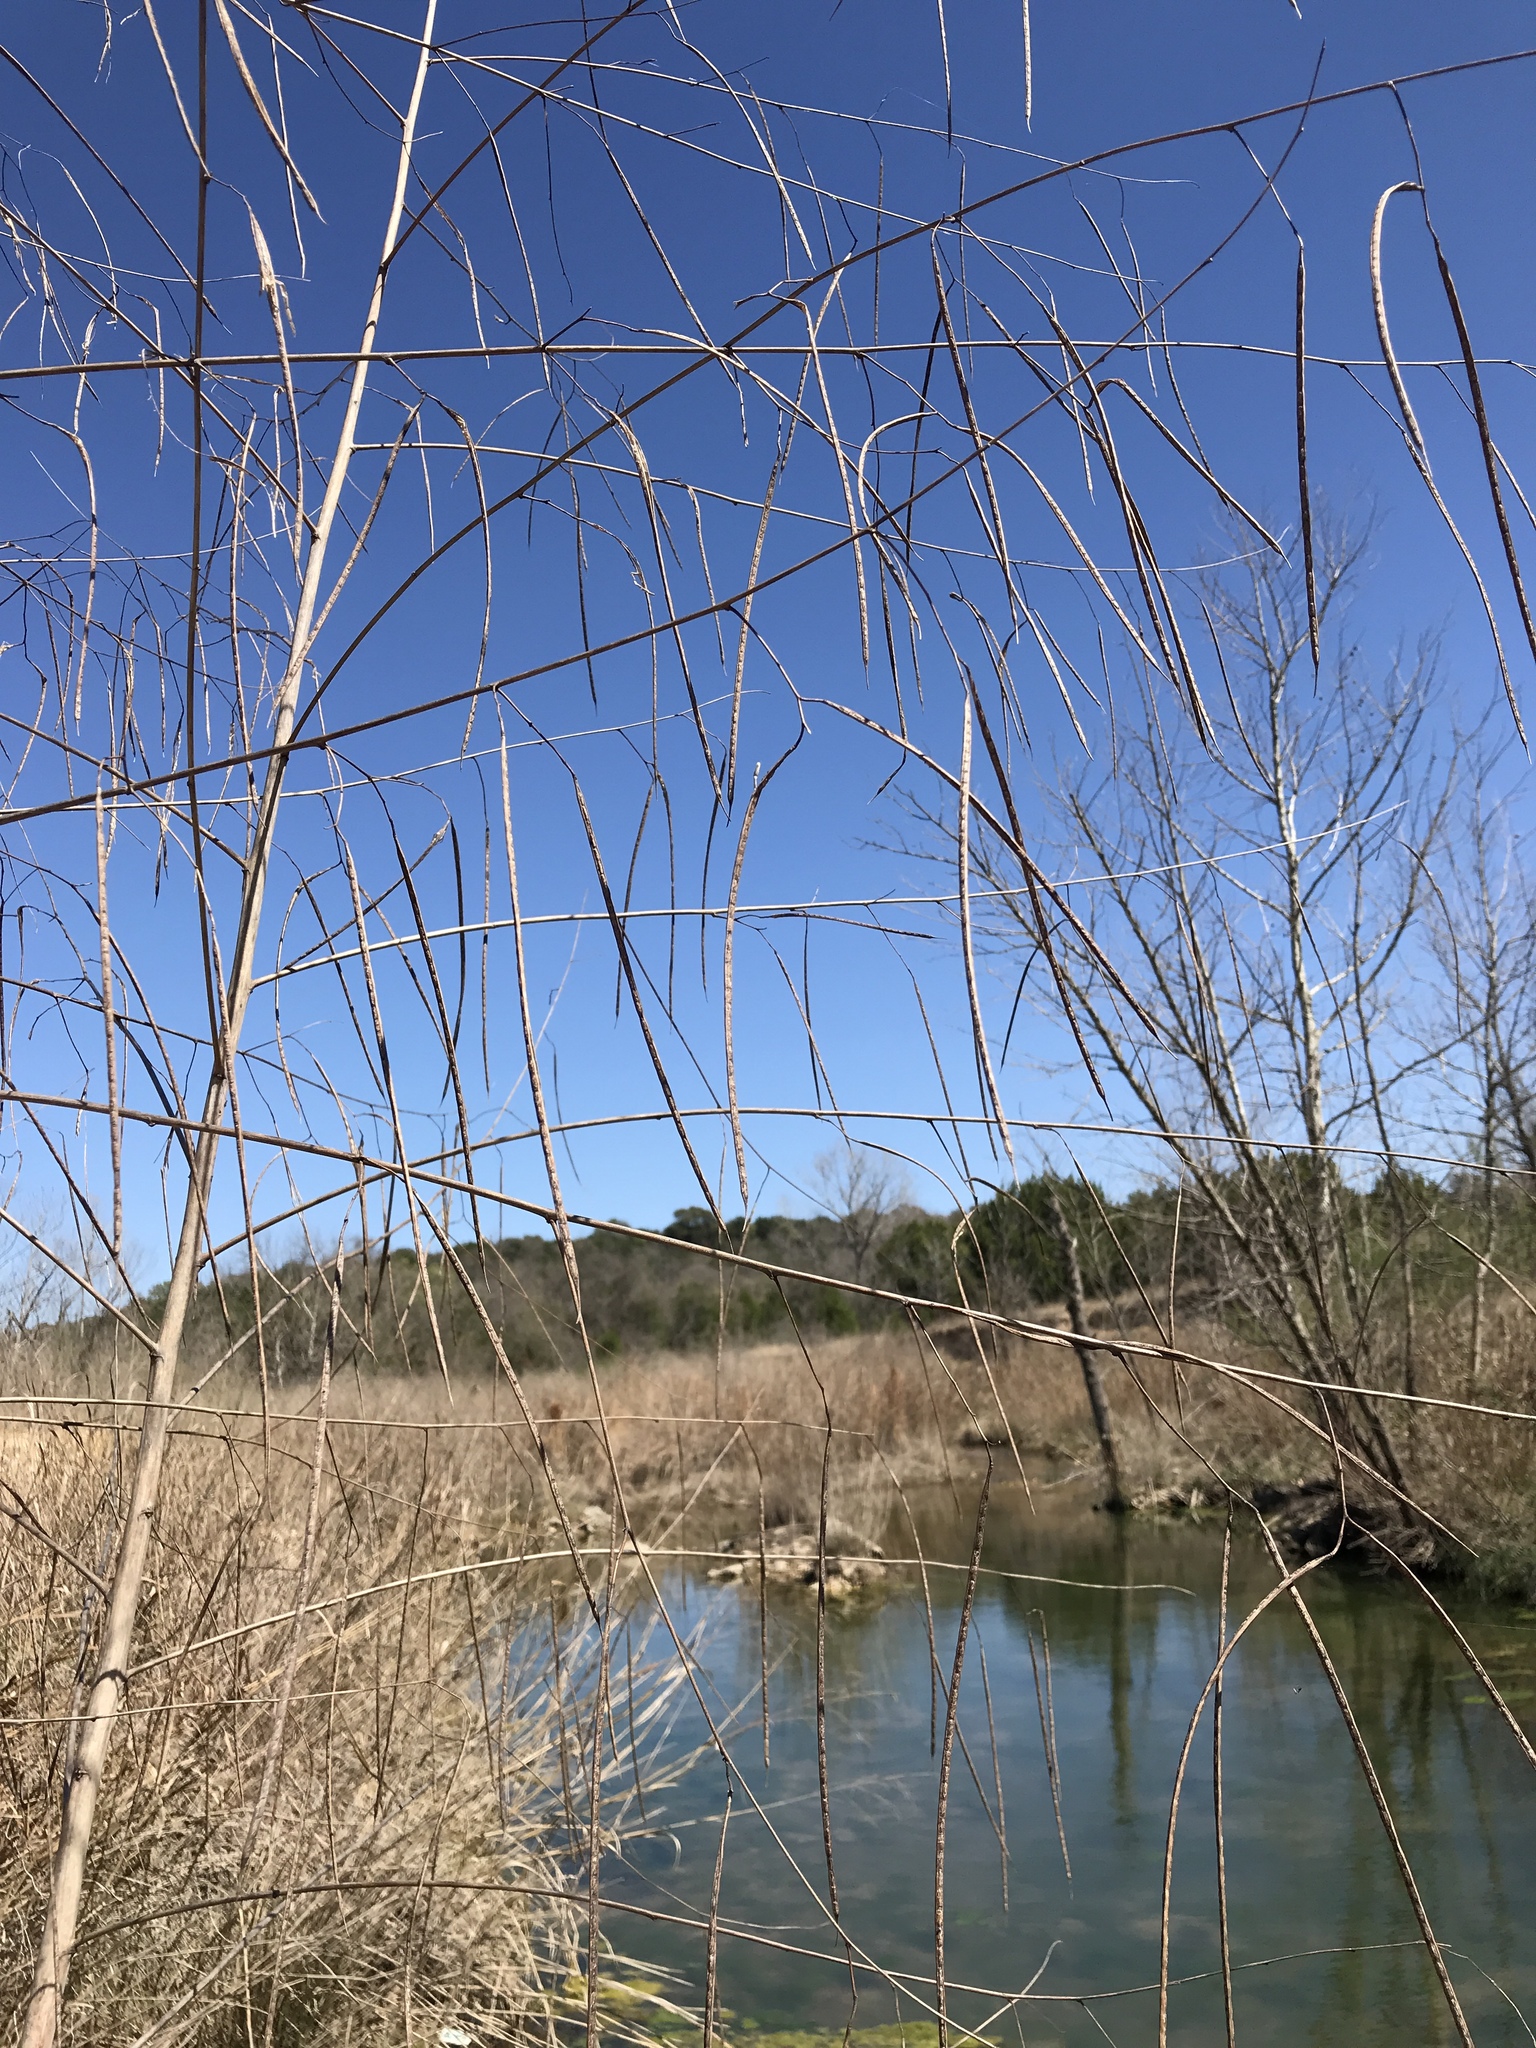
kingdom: Plantae
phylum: Tracheophyta
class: Magnoliopsida
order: Fabales
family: Fabaceae
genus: Sesbania
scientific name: Sesbania herbacea
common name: Bigpod sesbania
